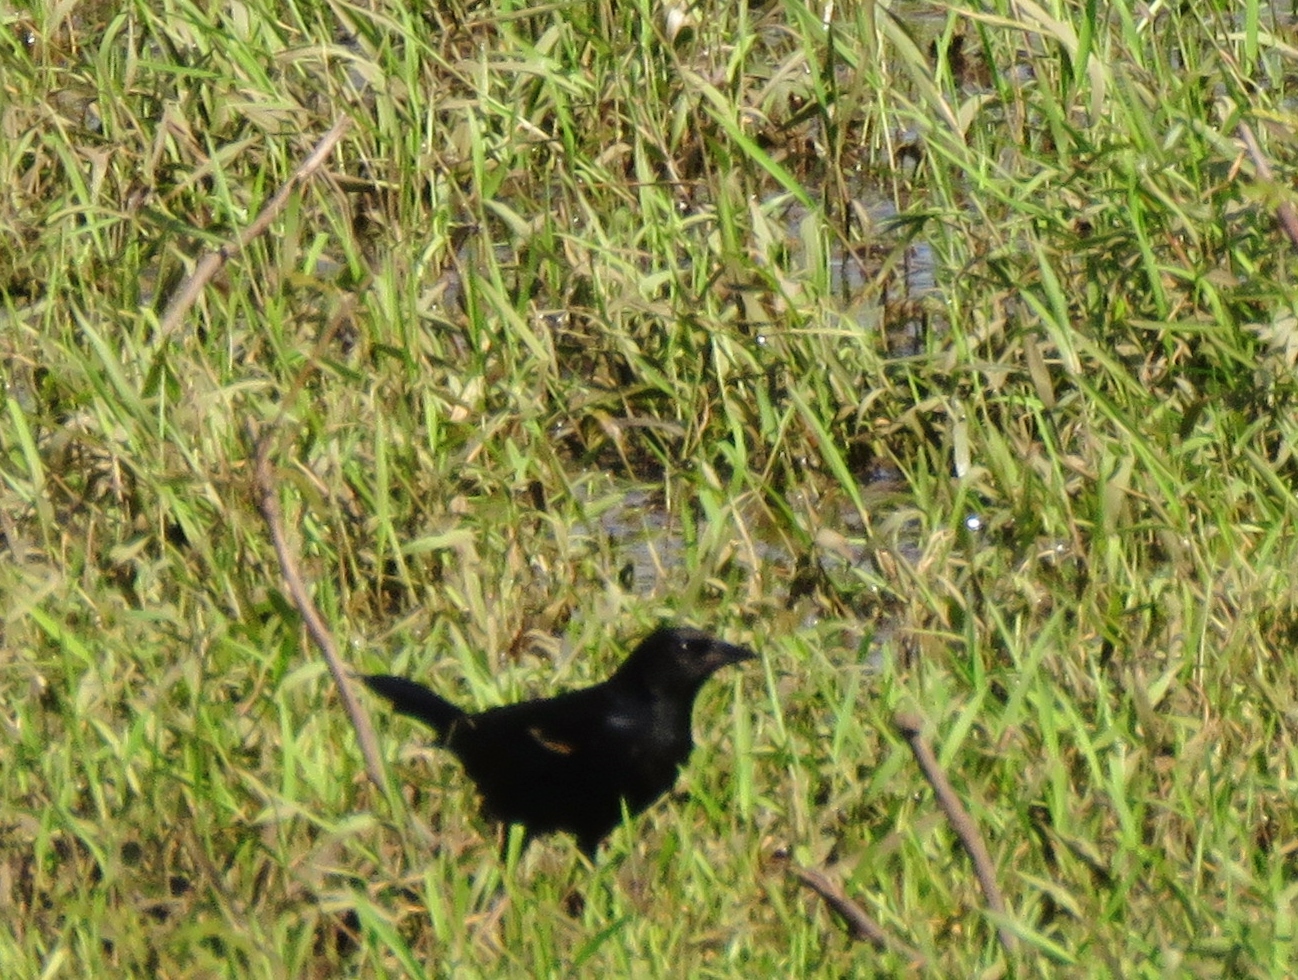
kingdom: Animalia
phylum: Chordata
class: Aves
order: Passeriformes
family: Icteridae
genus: Agelaius
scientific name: Agelaius phoeniceus
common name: Red-winged blackbird
